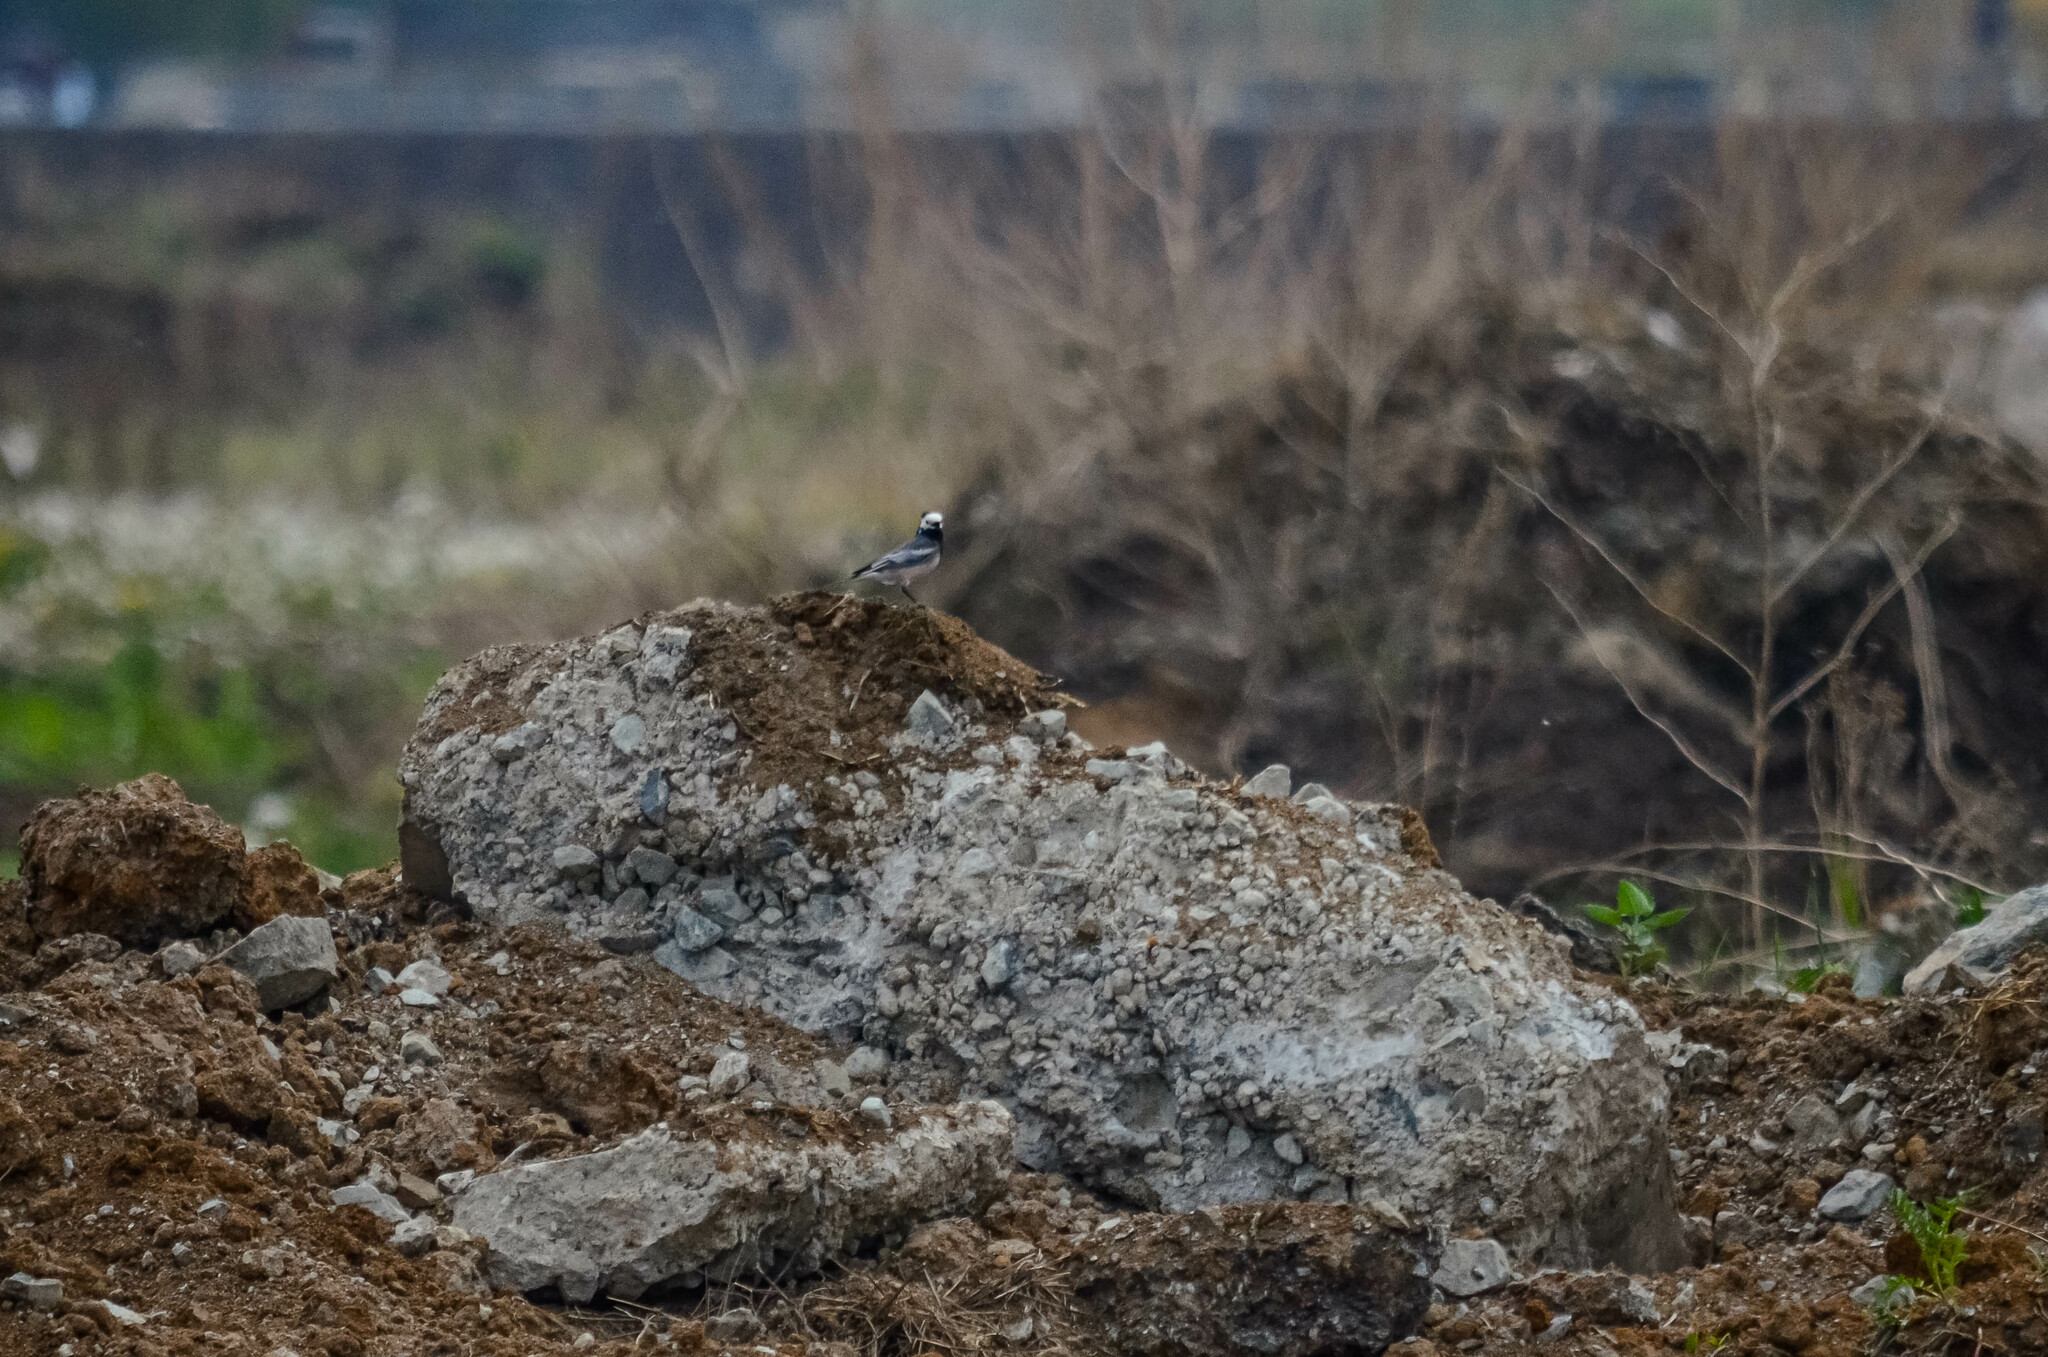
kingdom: Animalia
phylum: Chordata
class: Aves
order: Passeriformes
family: Motacillidae
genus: Motacilla
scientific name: Motacilla alba
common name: White wagtail
